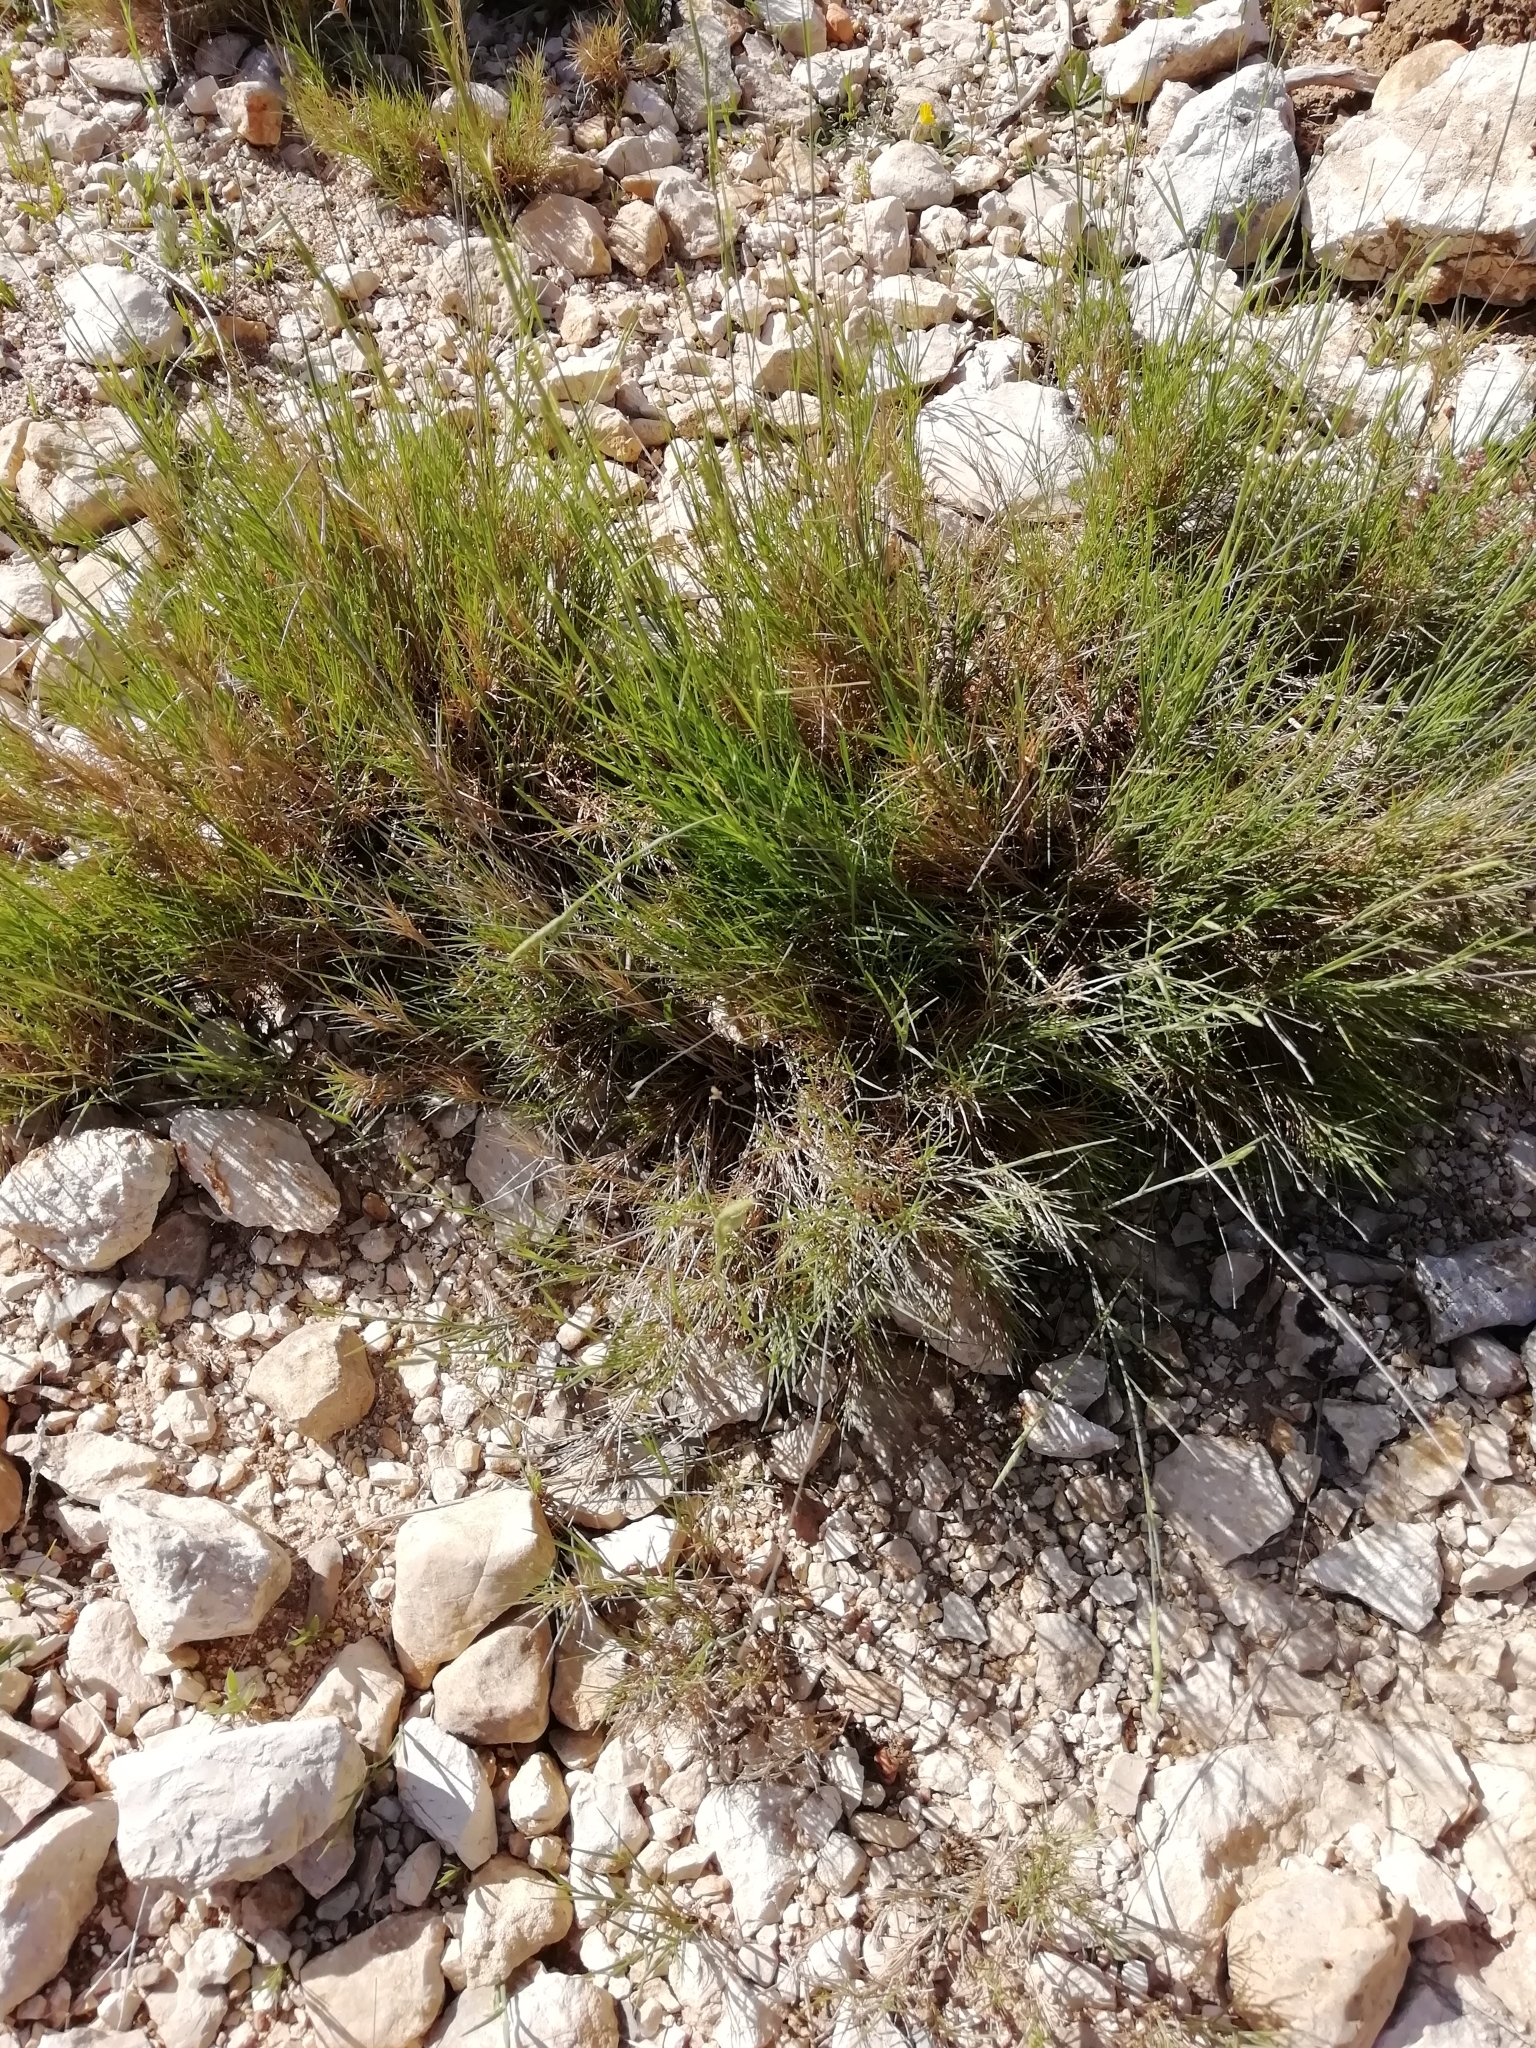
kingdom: Plantae
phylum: Tracheophyta
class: Liliopsida
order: Poales
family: Poaceae
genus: Brachypodium
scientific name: Brachypodium retusum
